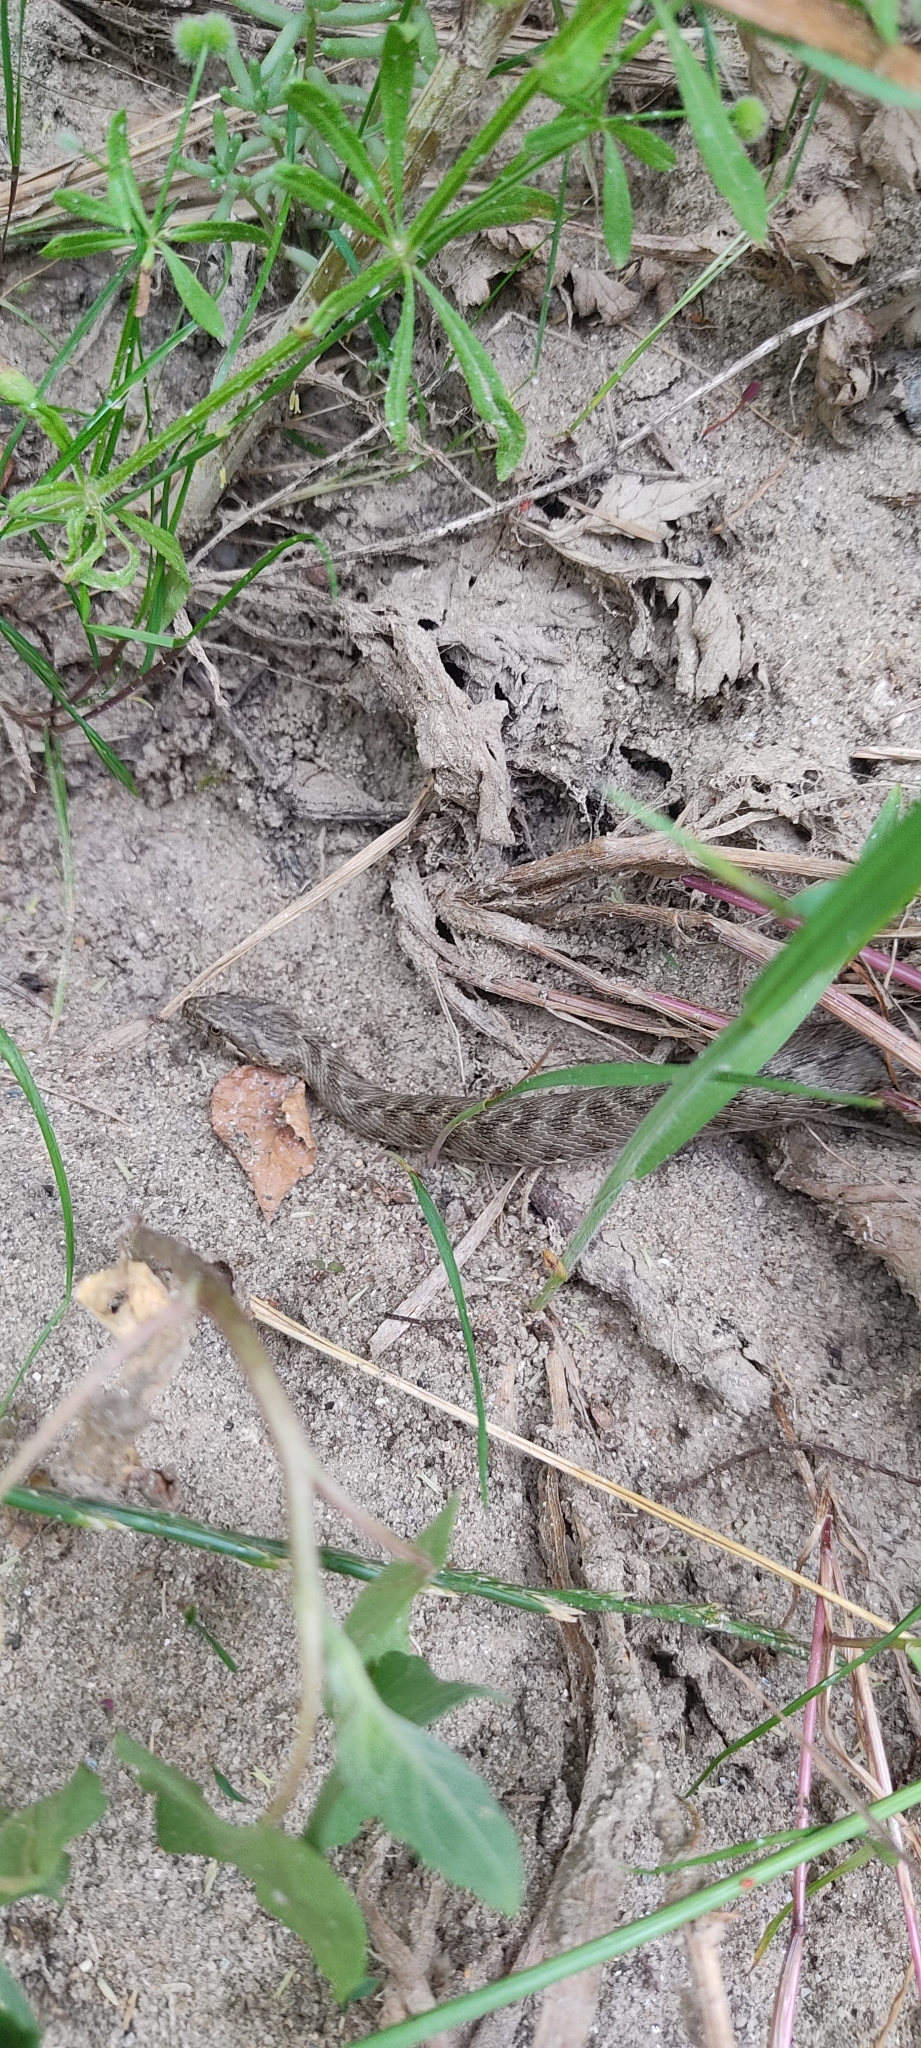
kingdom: Animalia
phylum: Chordata
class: Squamata
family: Colubridae
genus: Natrix
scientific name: Natrix maura
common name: Viperine water snake
